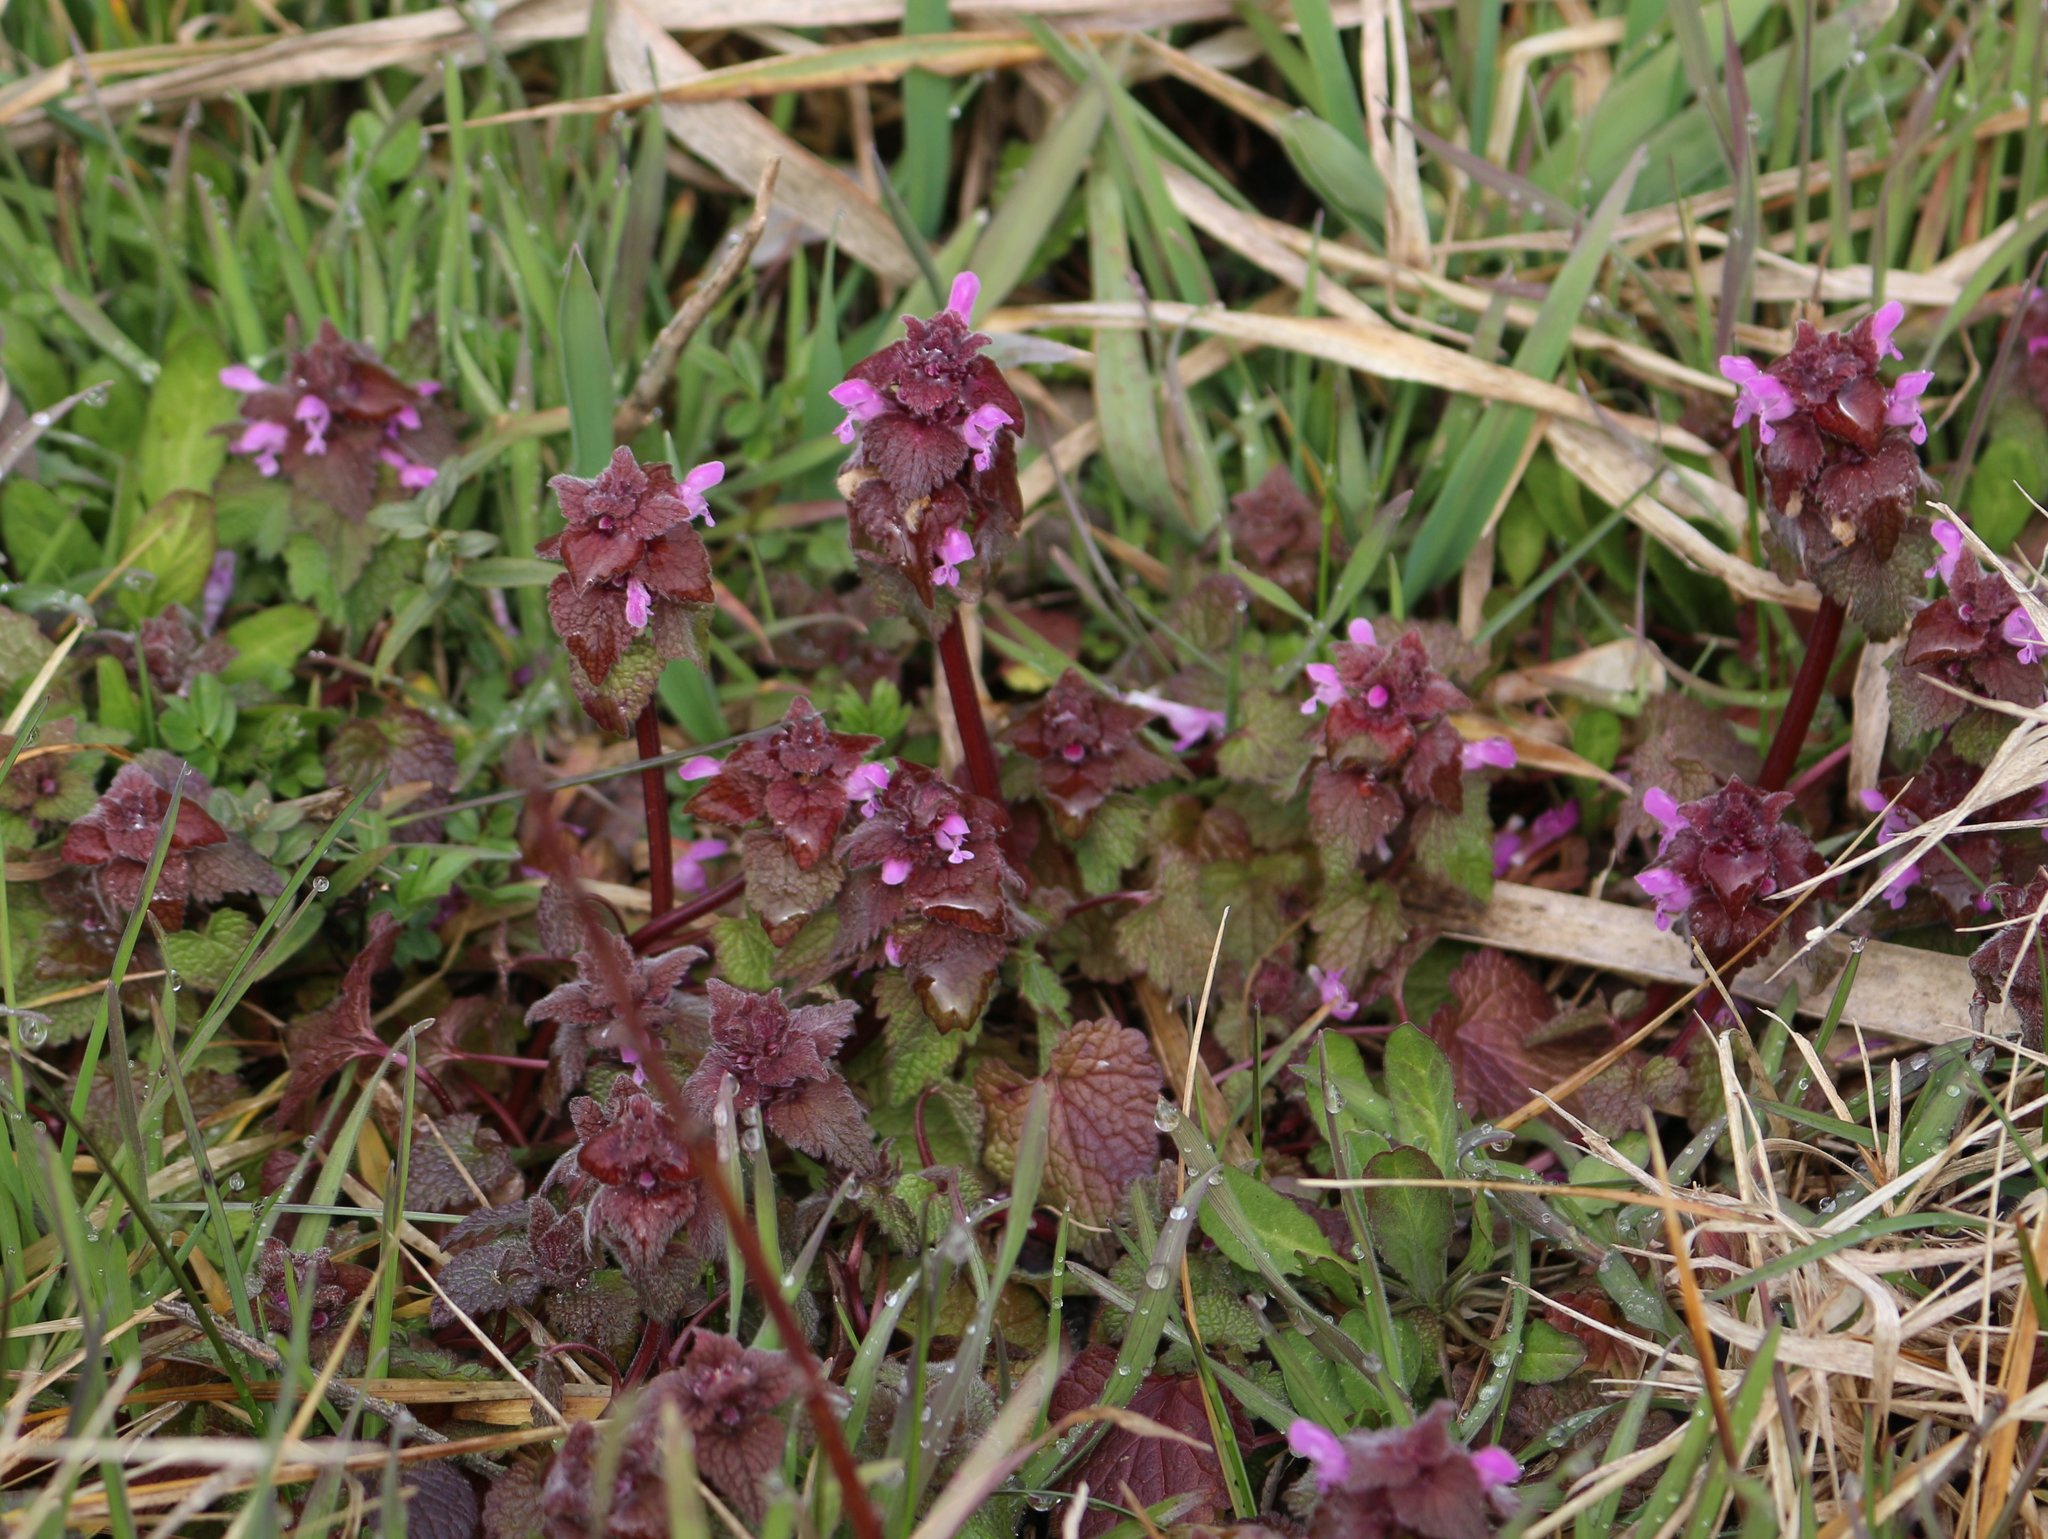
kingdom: Plantae
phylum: Tracheophyta
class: Magnoliopsida
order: Lamiales
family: Lamiaceae
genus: Lamium
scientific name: Lamium purpureum
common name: Red dead-nettle
